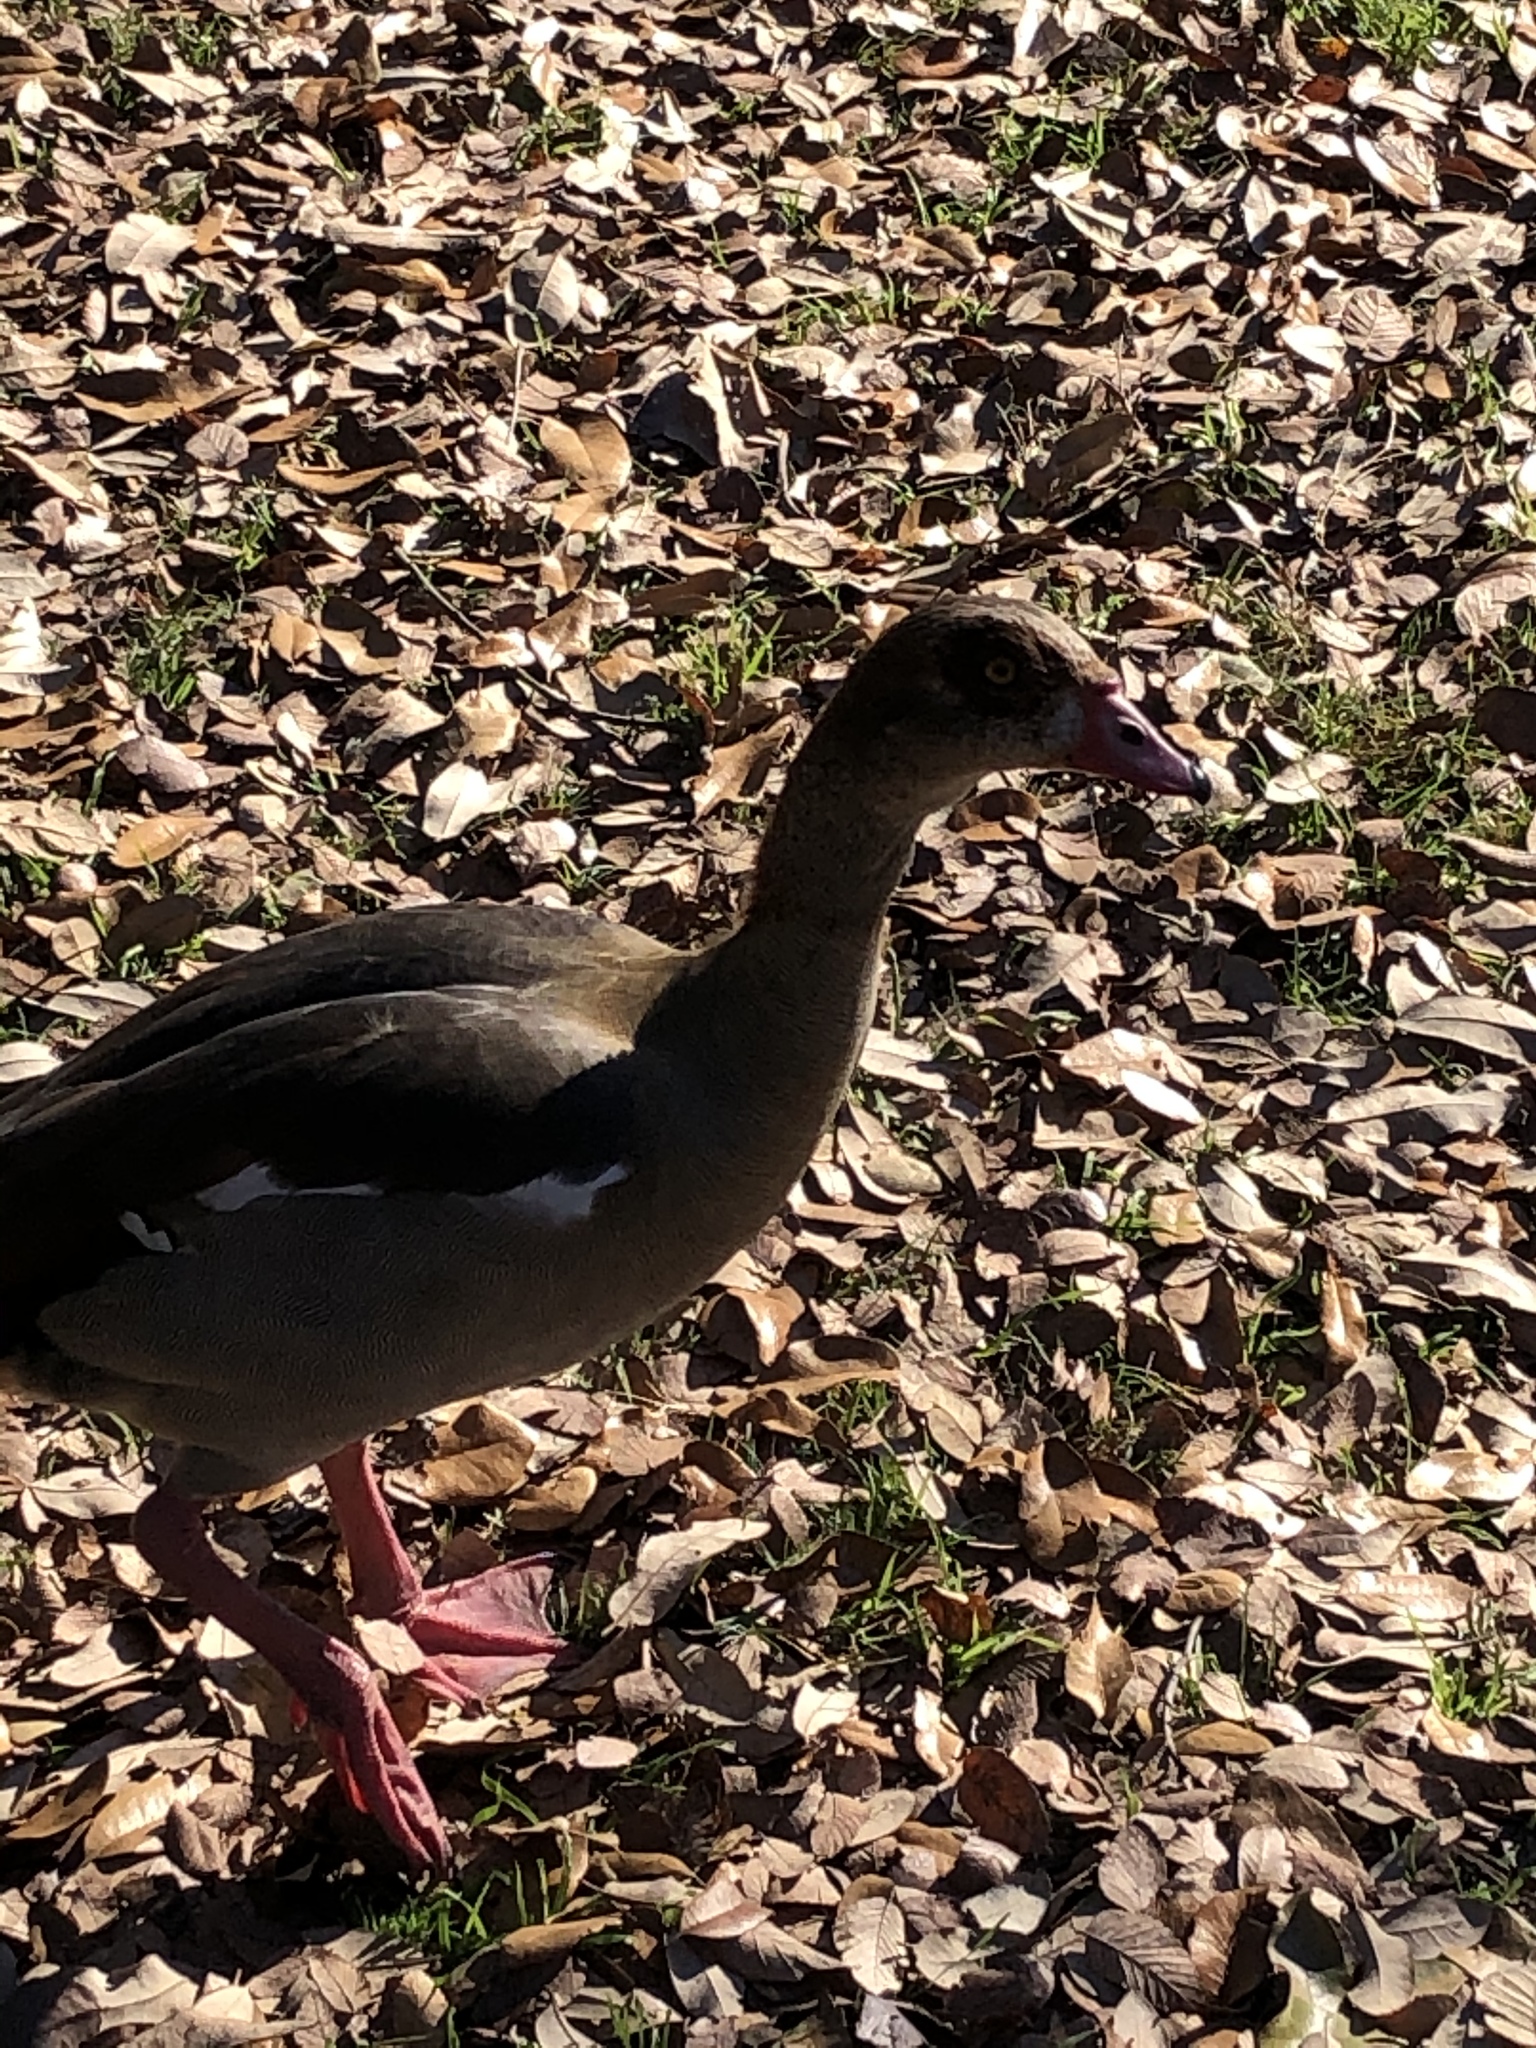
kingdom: Animalia
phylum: Chordata
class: Aves
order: Anseriformes
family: Anatidae
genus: Alopochen
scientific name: Alopochen aegyptiaca
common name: Egyptian goose
